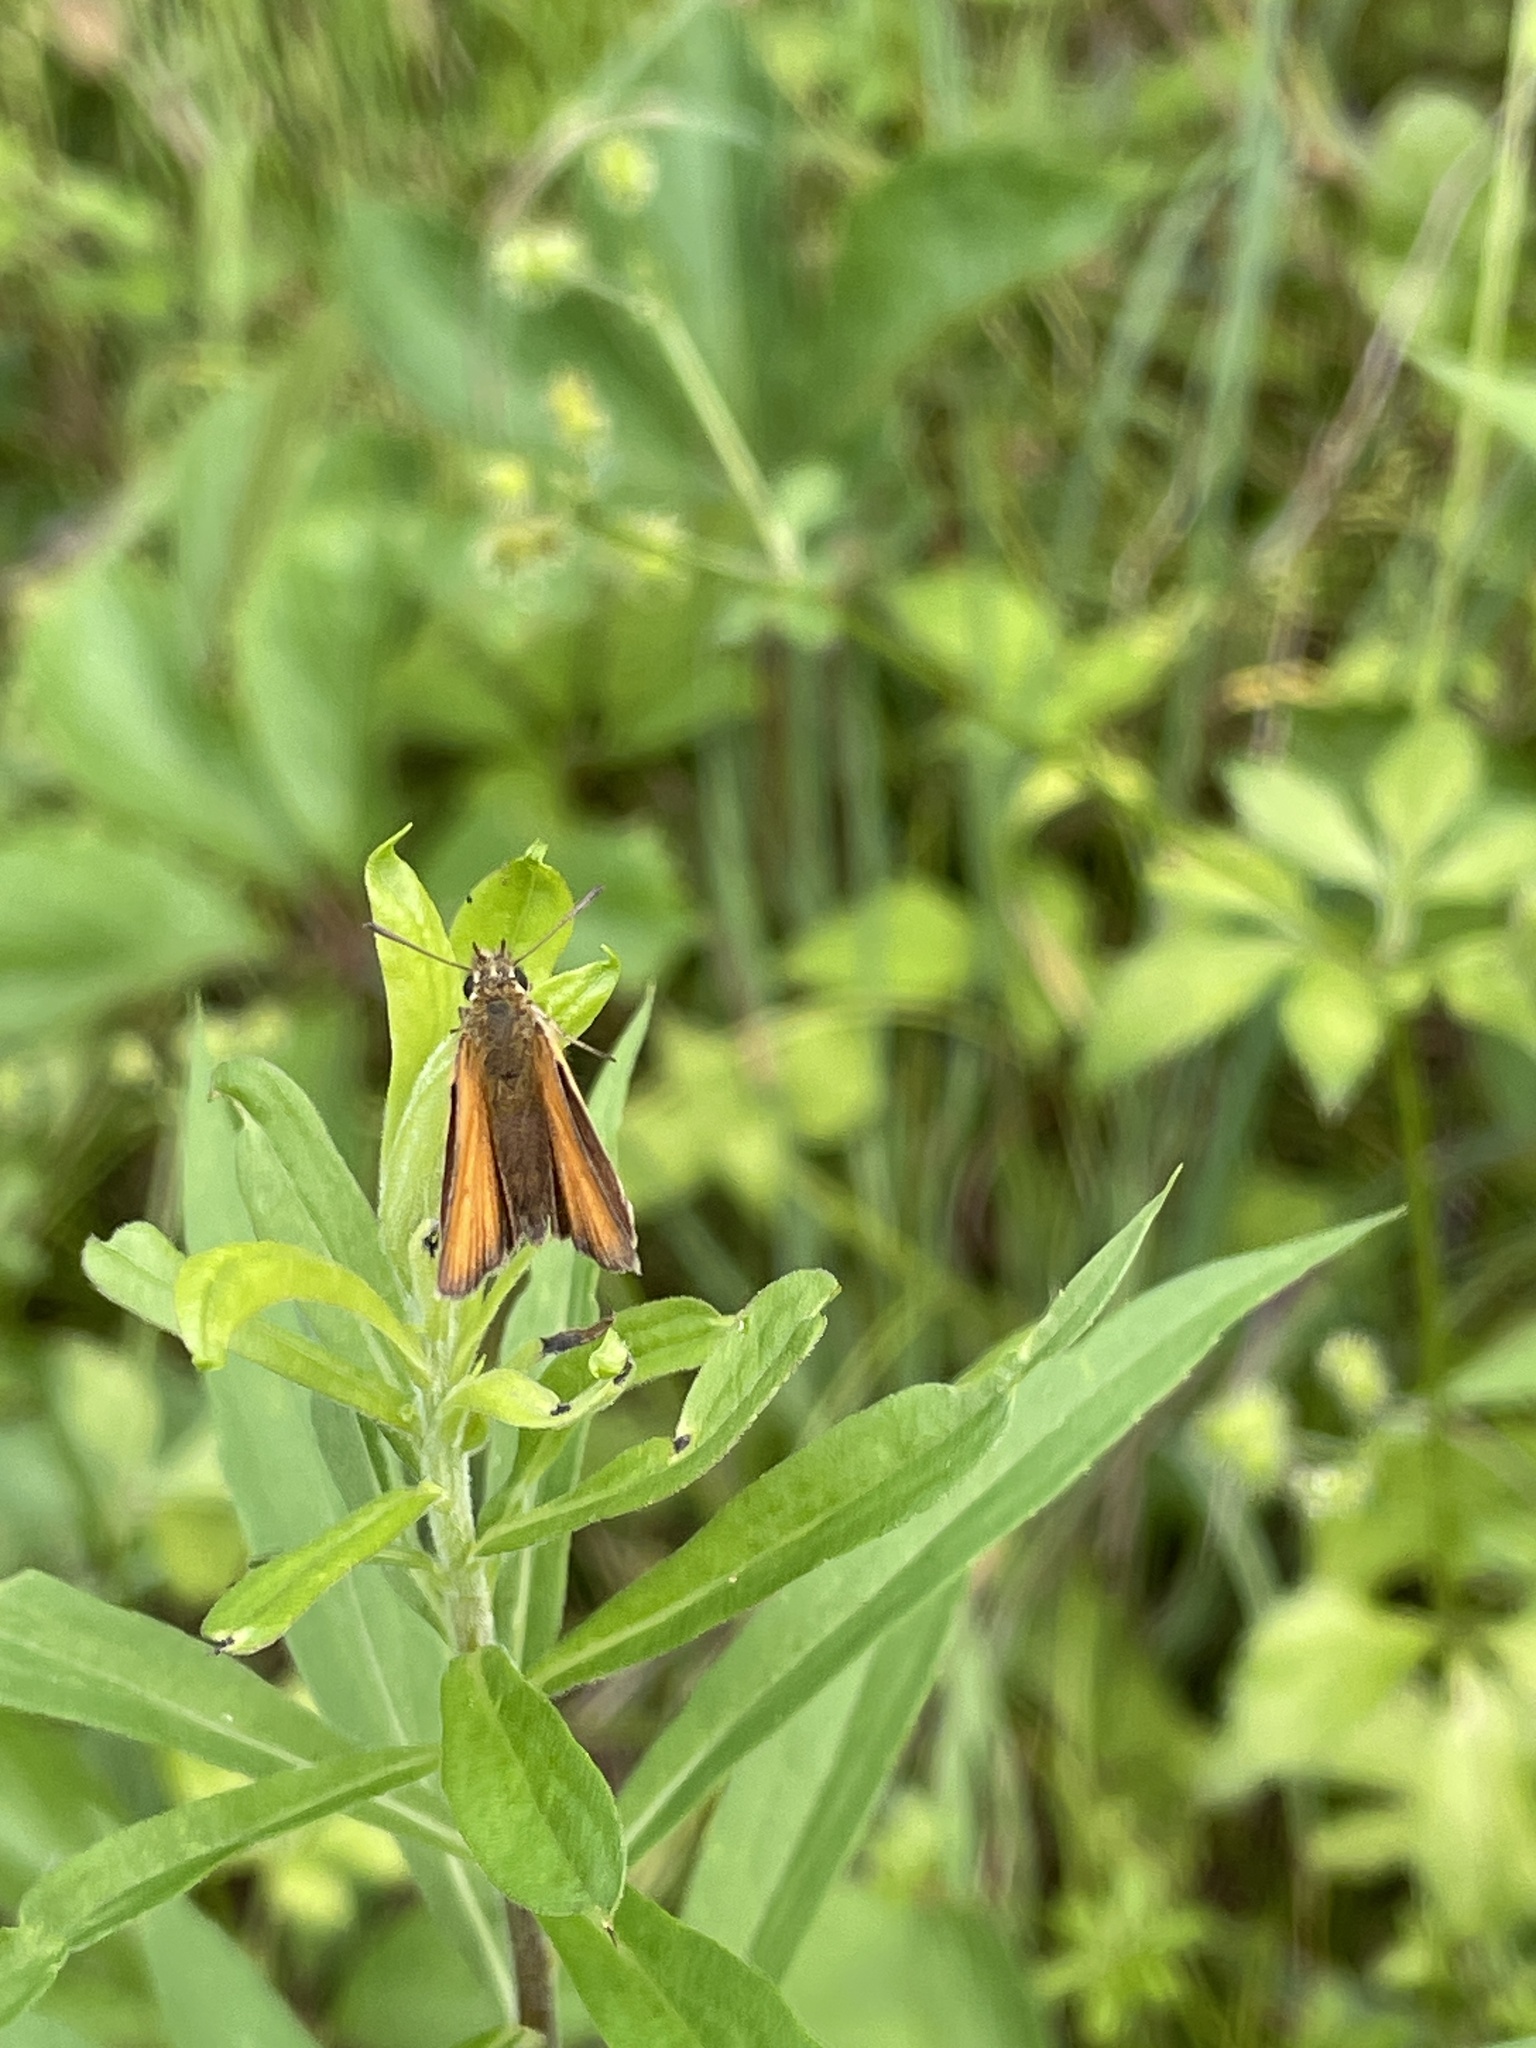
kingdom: Animalia
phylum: Arthropoda
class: Insecta
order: Lepidoptera
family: Hesperiidae
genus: Thymelicus
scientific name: Thymelicus lineola
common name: Essex skipper
